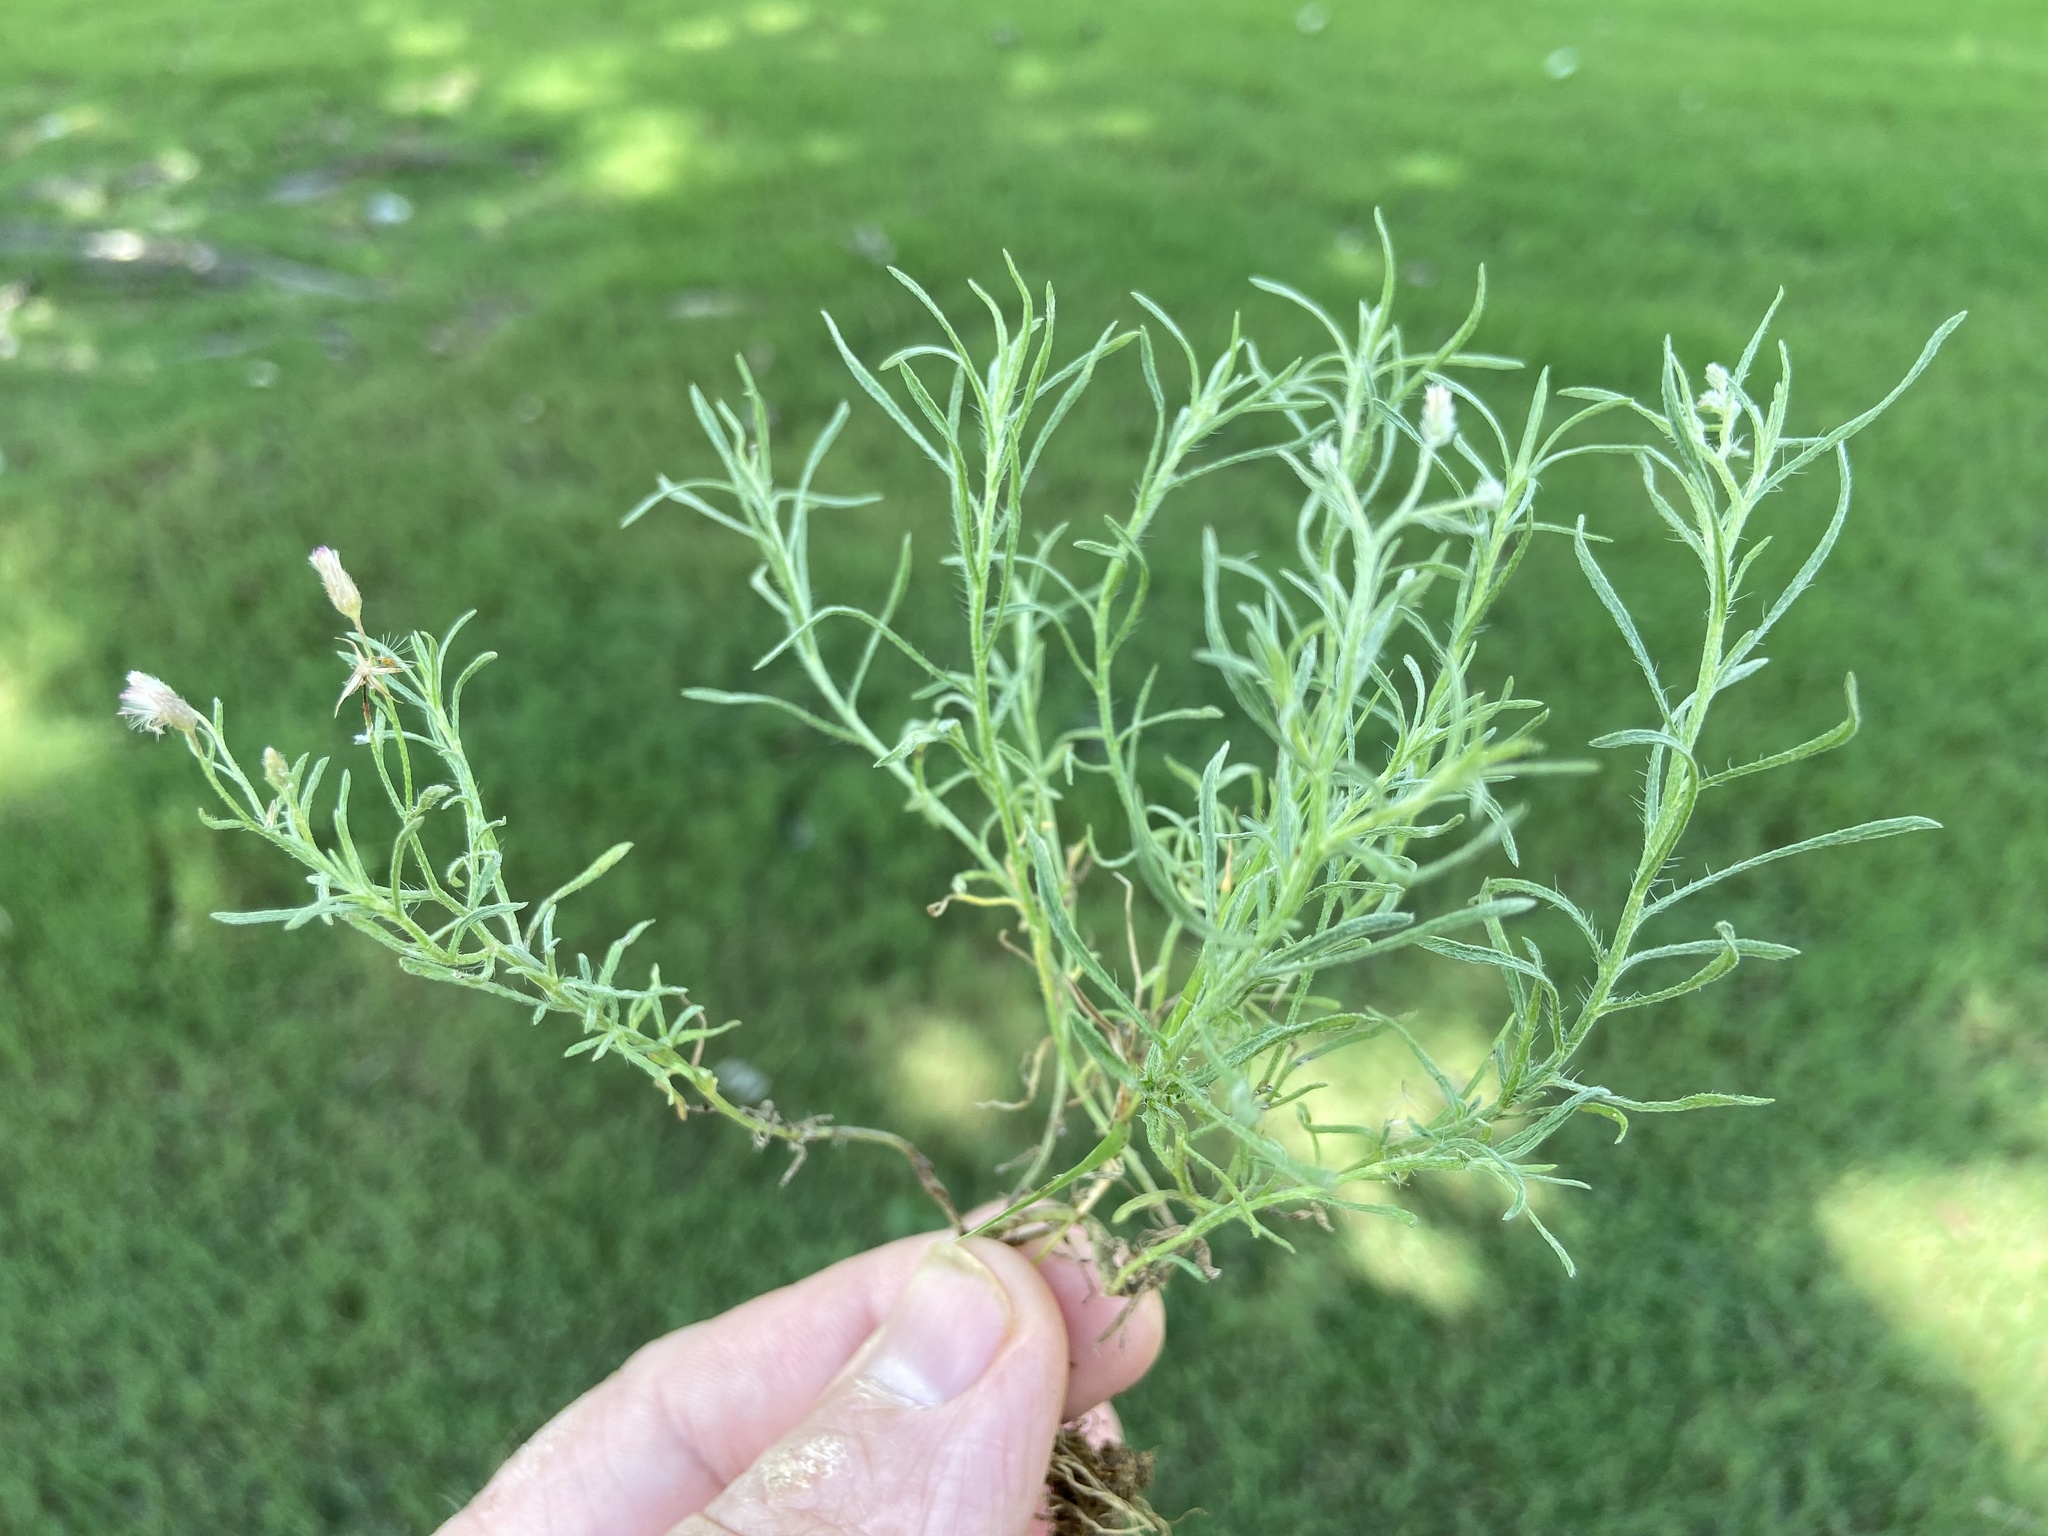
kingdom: Plantae
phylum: Tracheophyta
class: Magnoliopsida
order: Asterales
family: Asteraceae
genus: Erigeron
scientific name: Erigeron divaricatus
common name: Dwarf conyza
